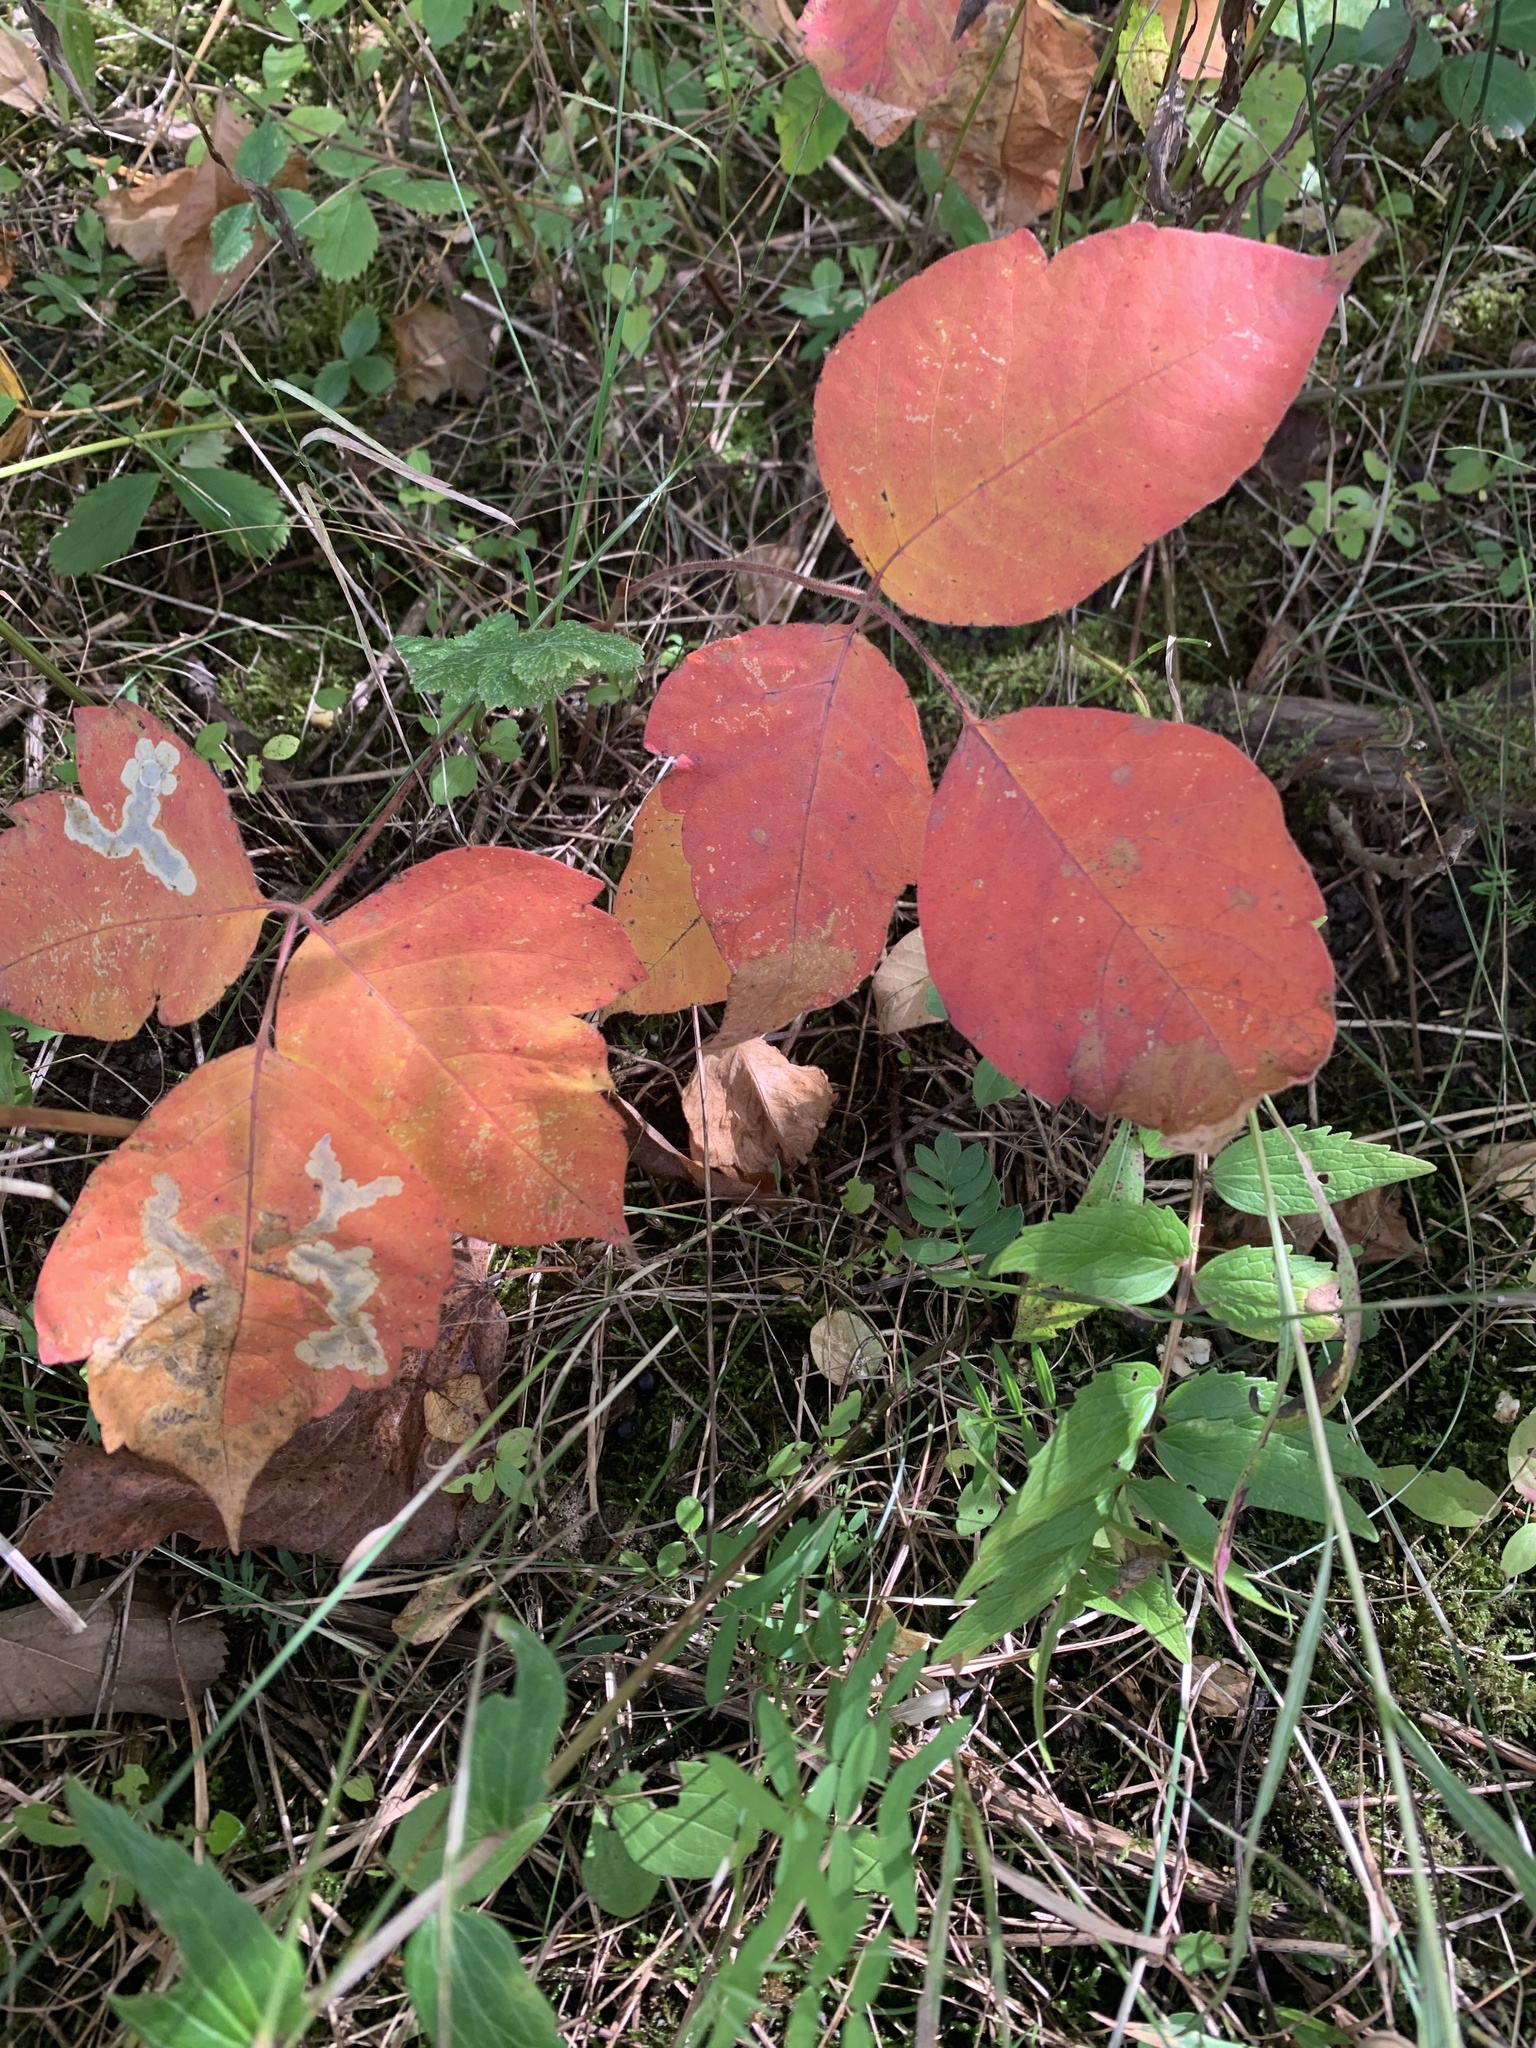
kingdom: Plantae
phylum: Tracheophyta
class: Magnoliopsida
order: Sapindales
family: Anacardiaceae
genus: Toxicodendron
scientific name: Toxicodendron radicans
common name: Poison ivy
